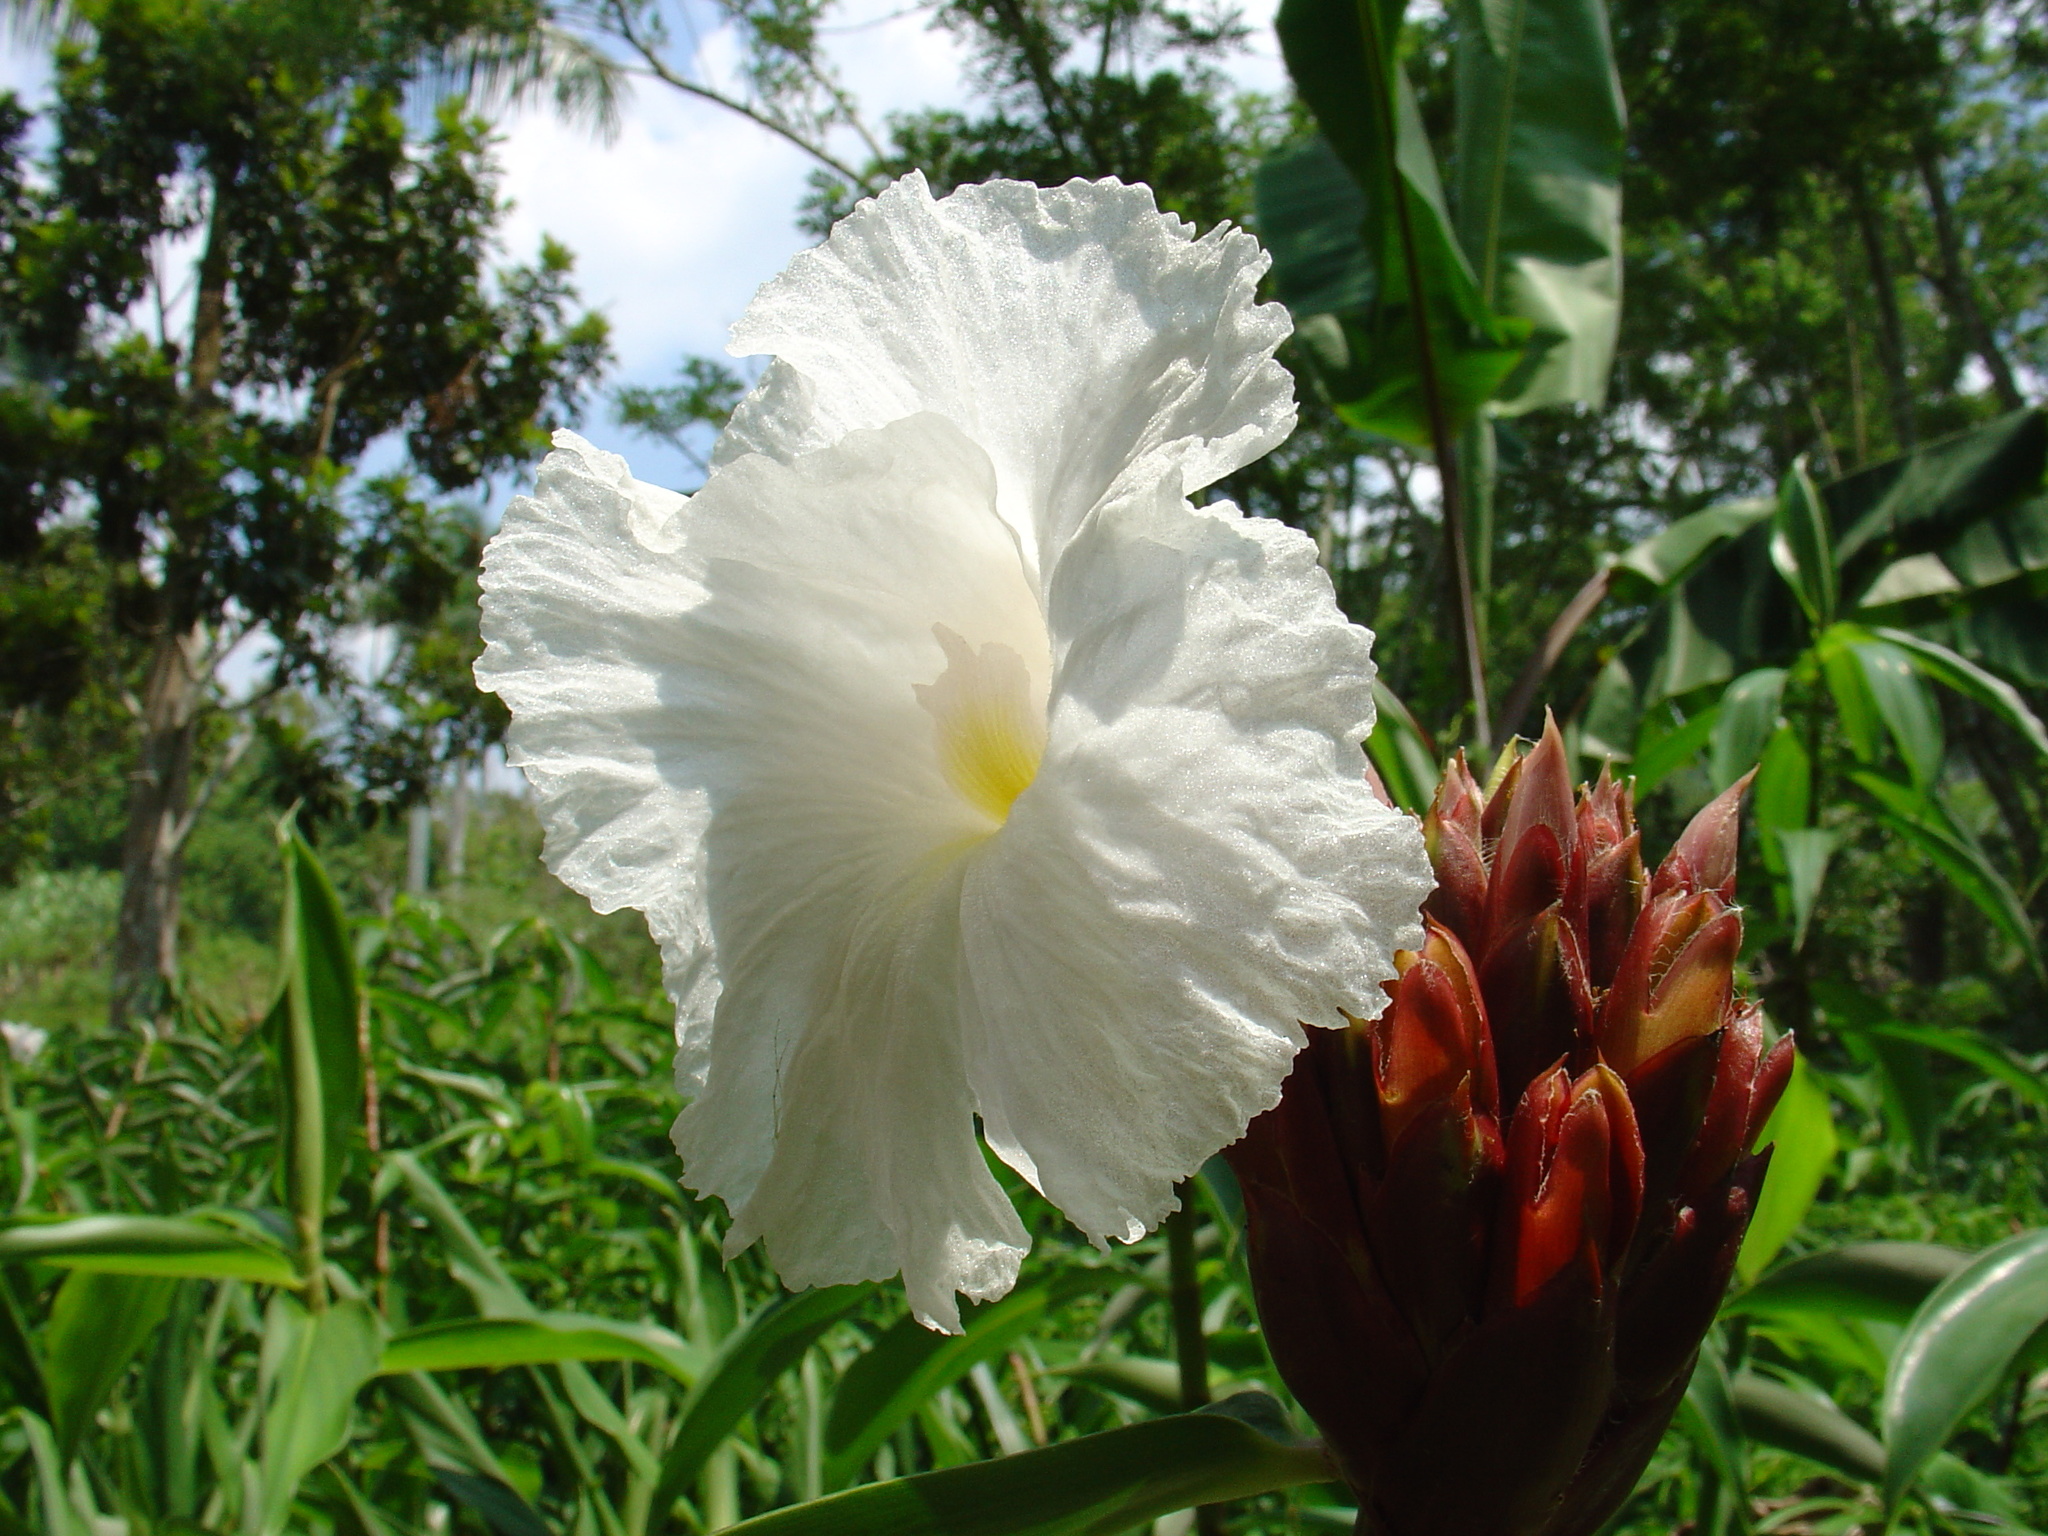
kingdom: Plantae
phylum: Tracheophyta
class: Liliopsida
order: Zingiberales
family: Costaceae
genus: Hellenia
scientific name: Hellenia speciosa
